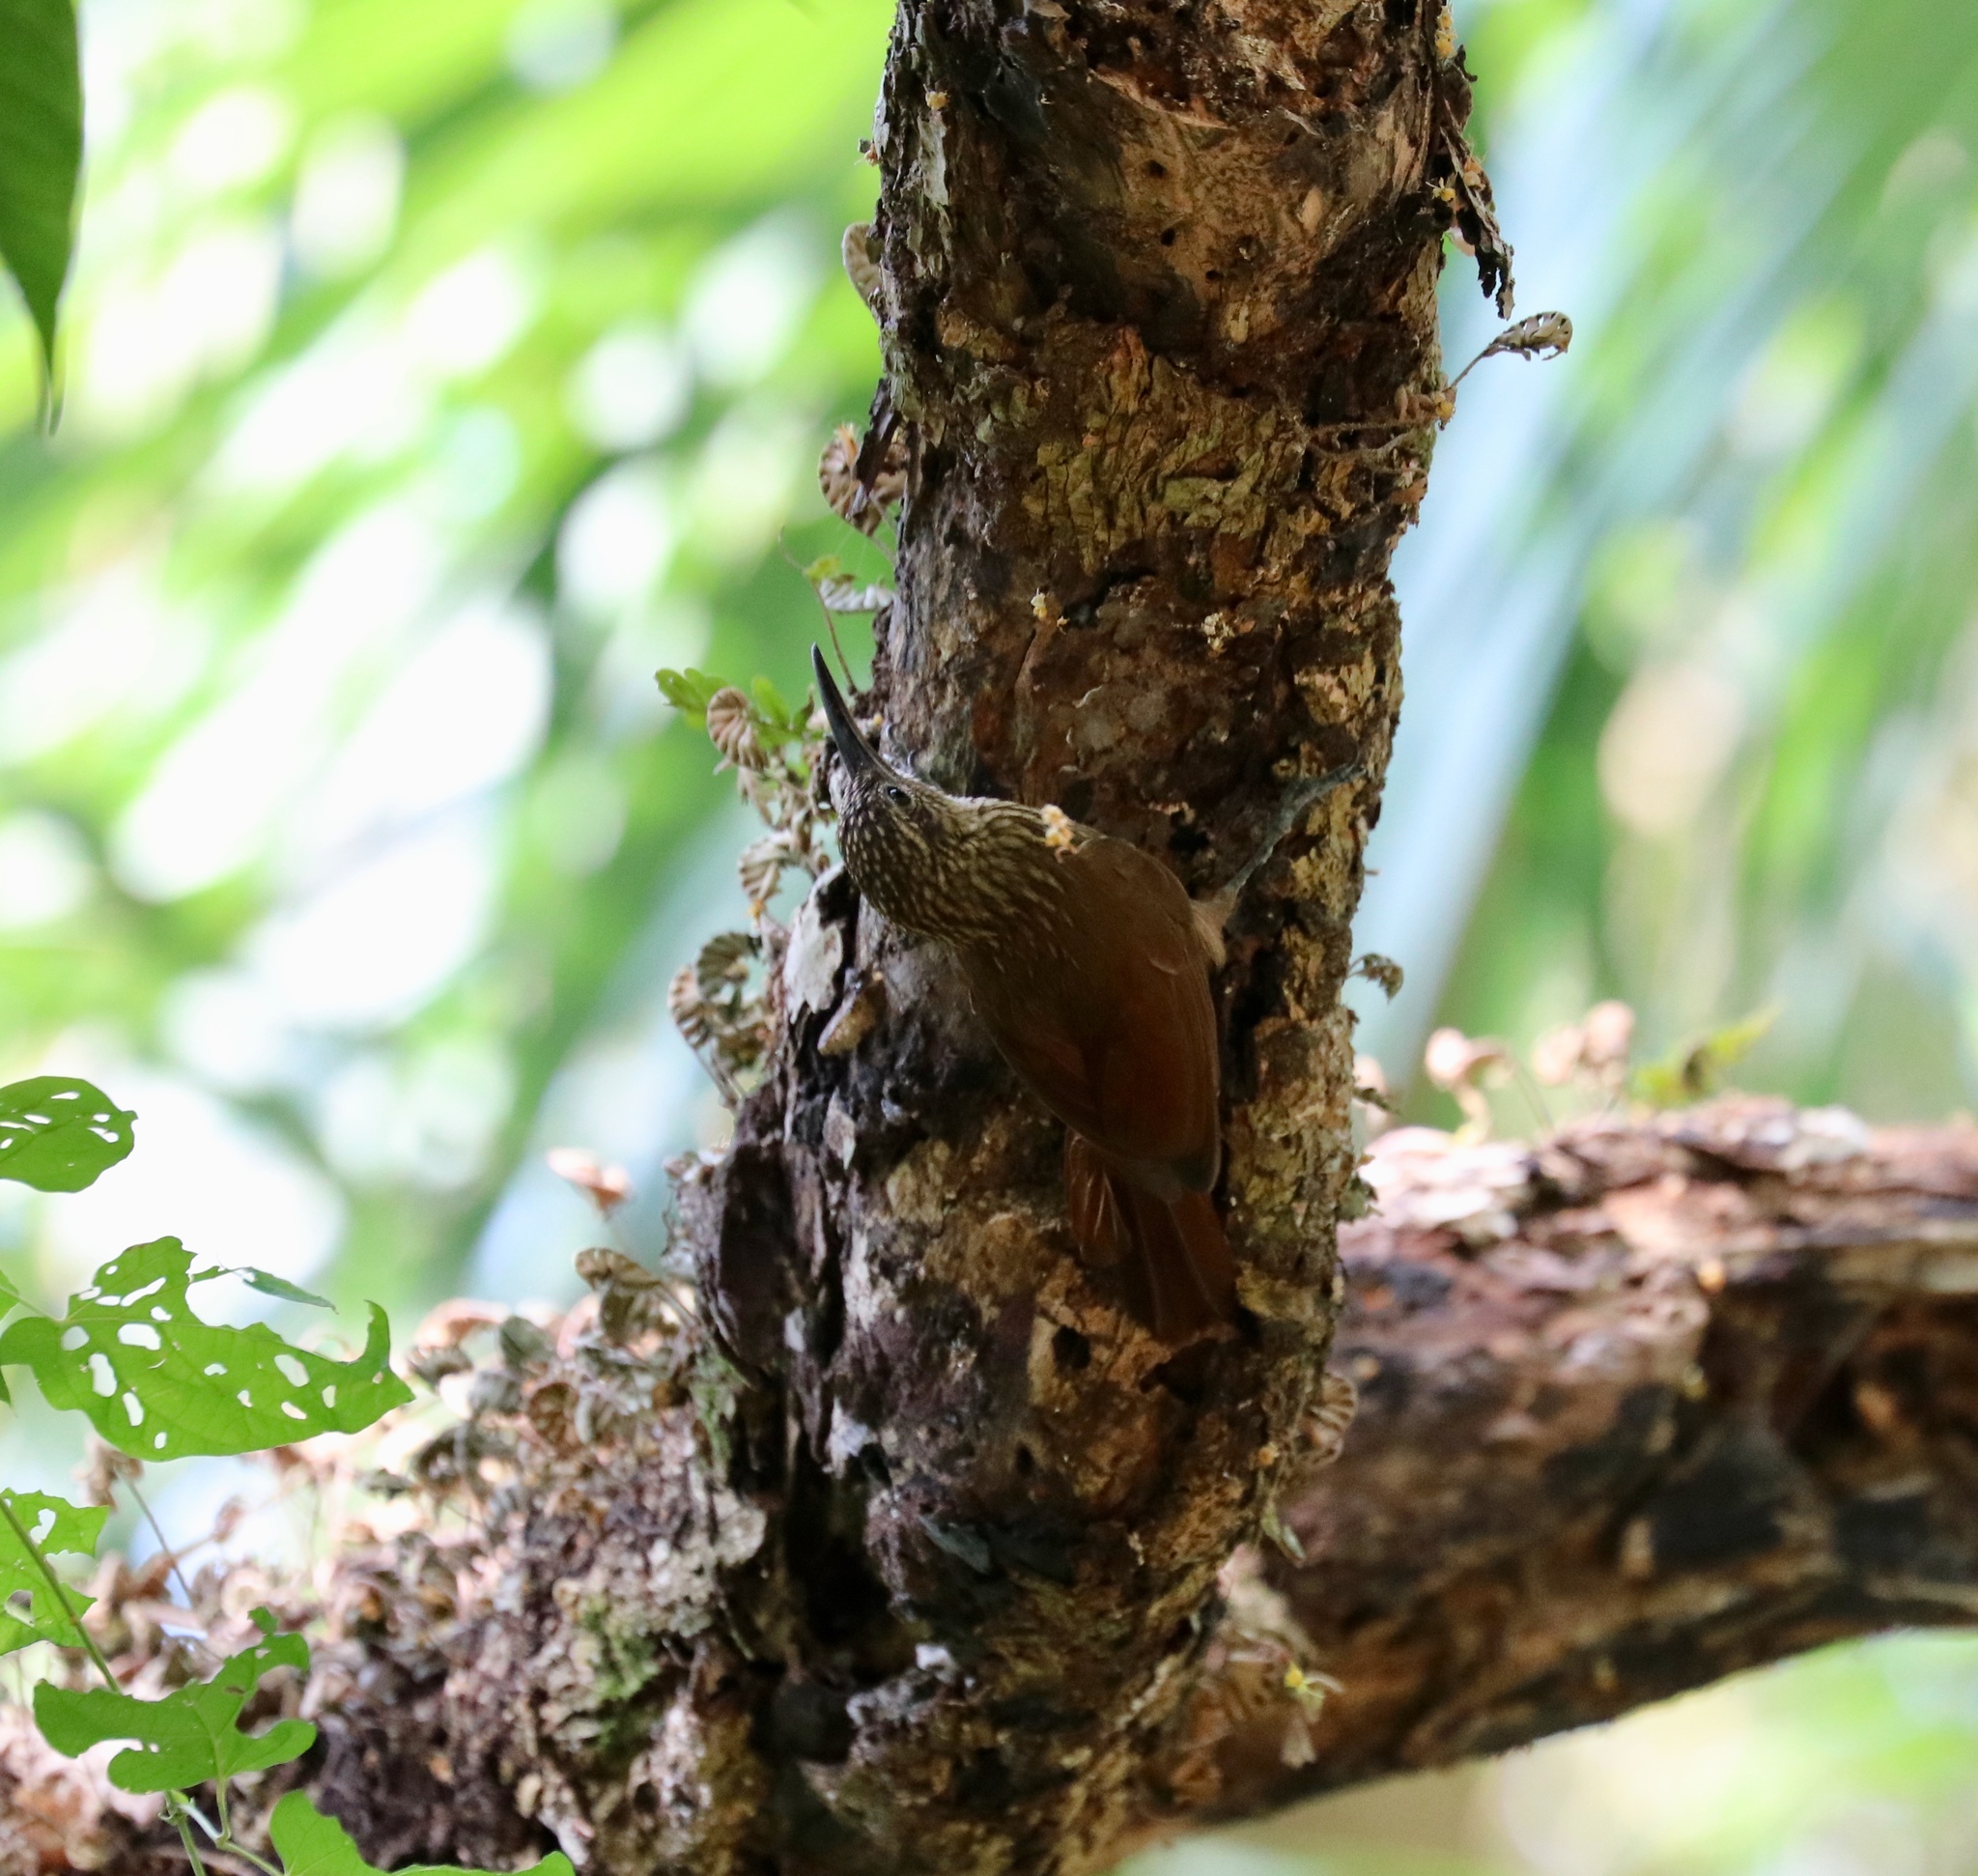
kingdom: Animalia
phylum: Chordata
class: Aves
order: Passeriformes
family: Furnariidae
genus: Xiphorhynchus
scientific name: Xiphorhynchus susurrans
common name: Cocoa woodcreeper
